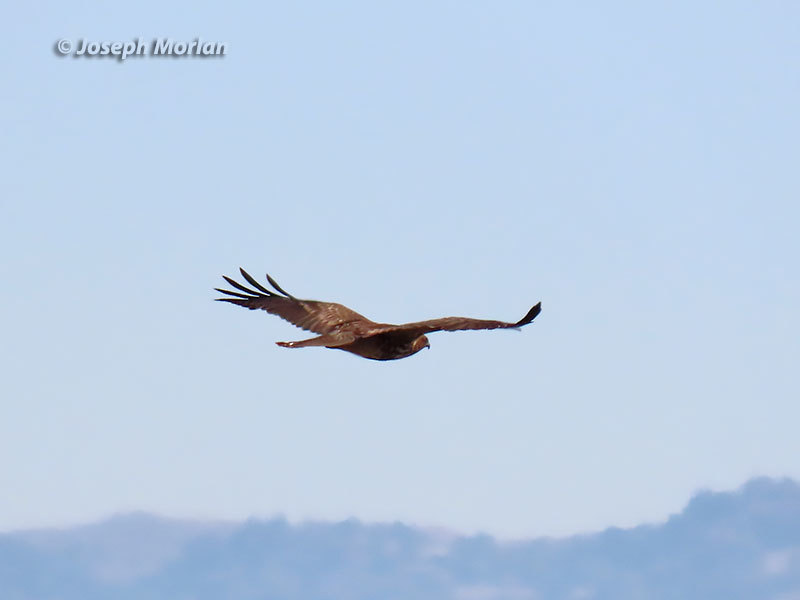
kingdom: Animalia
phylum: Chordata
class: Aves
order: Accipitriformes
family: Accipitridae
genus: Buteo
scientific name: Buteo jamaicensis
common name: Red-tailed hawk
